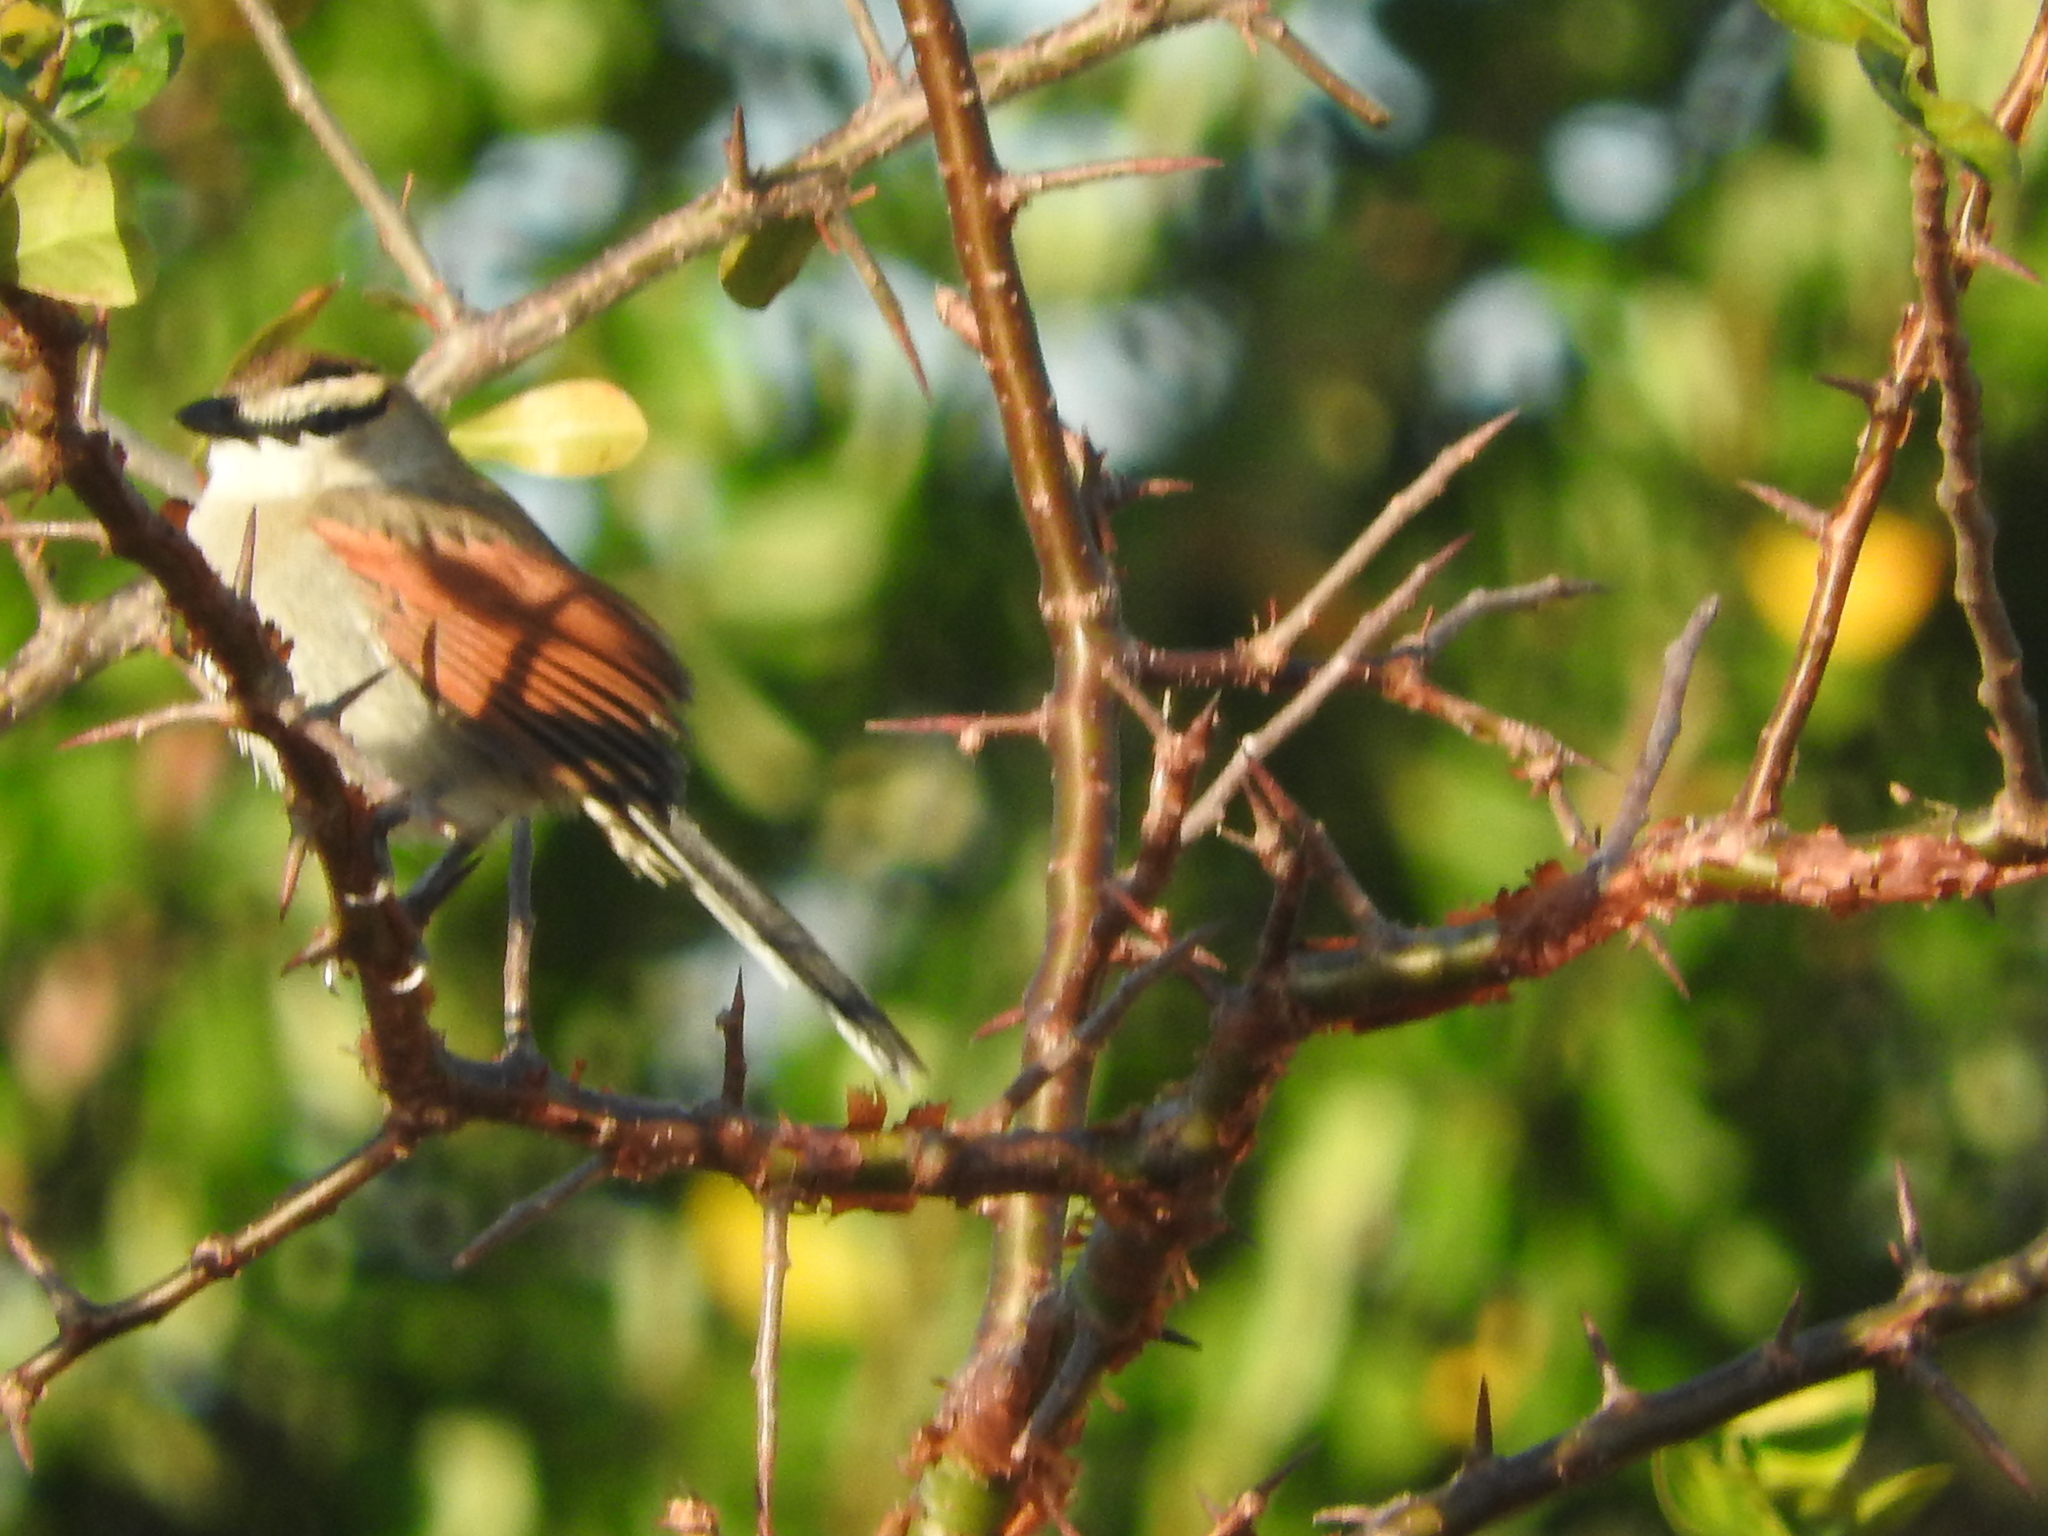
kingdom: Animalia
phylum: Chordata
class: Aves
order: Passeriformes
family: Malaconotidae
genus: Tchagra
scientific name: Tchagra australis
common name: Brown-crowned tchagra
